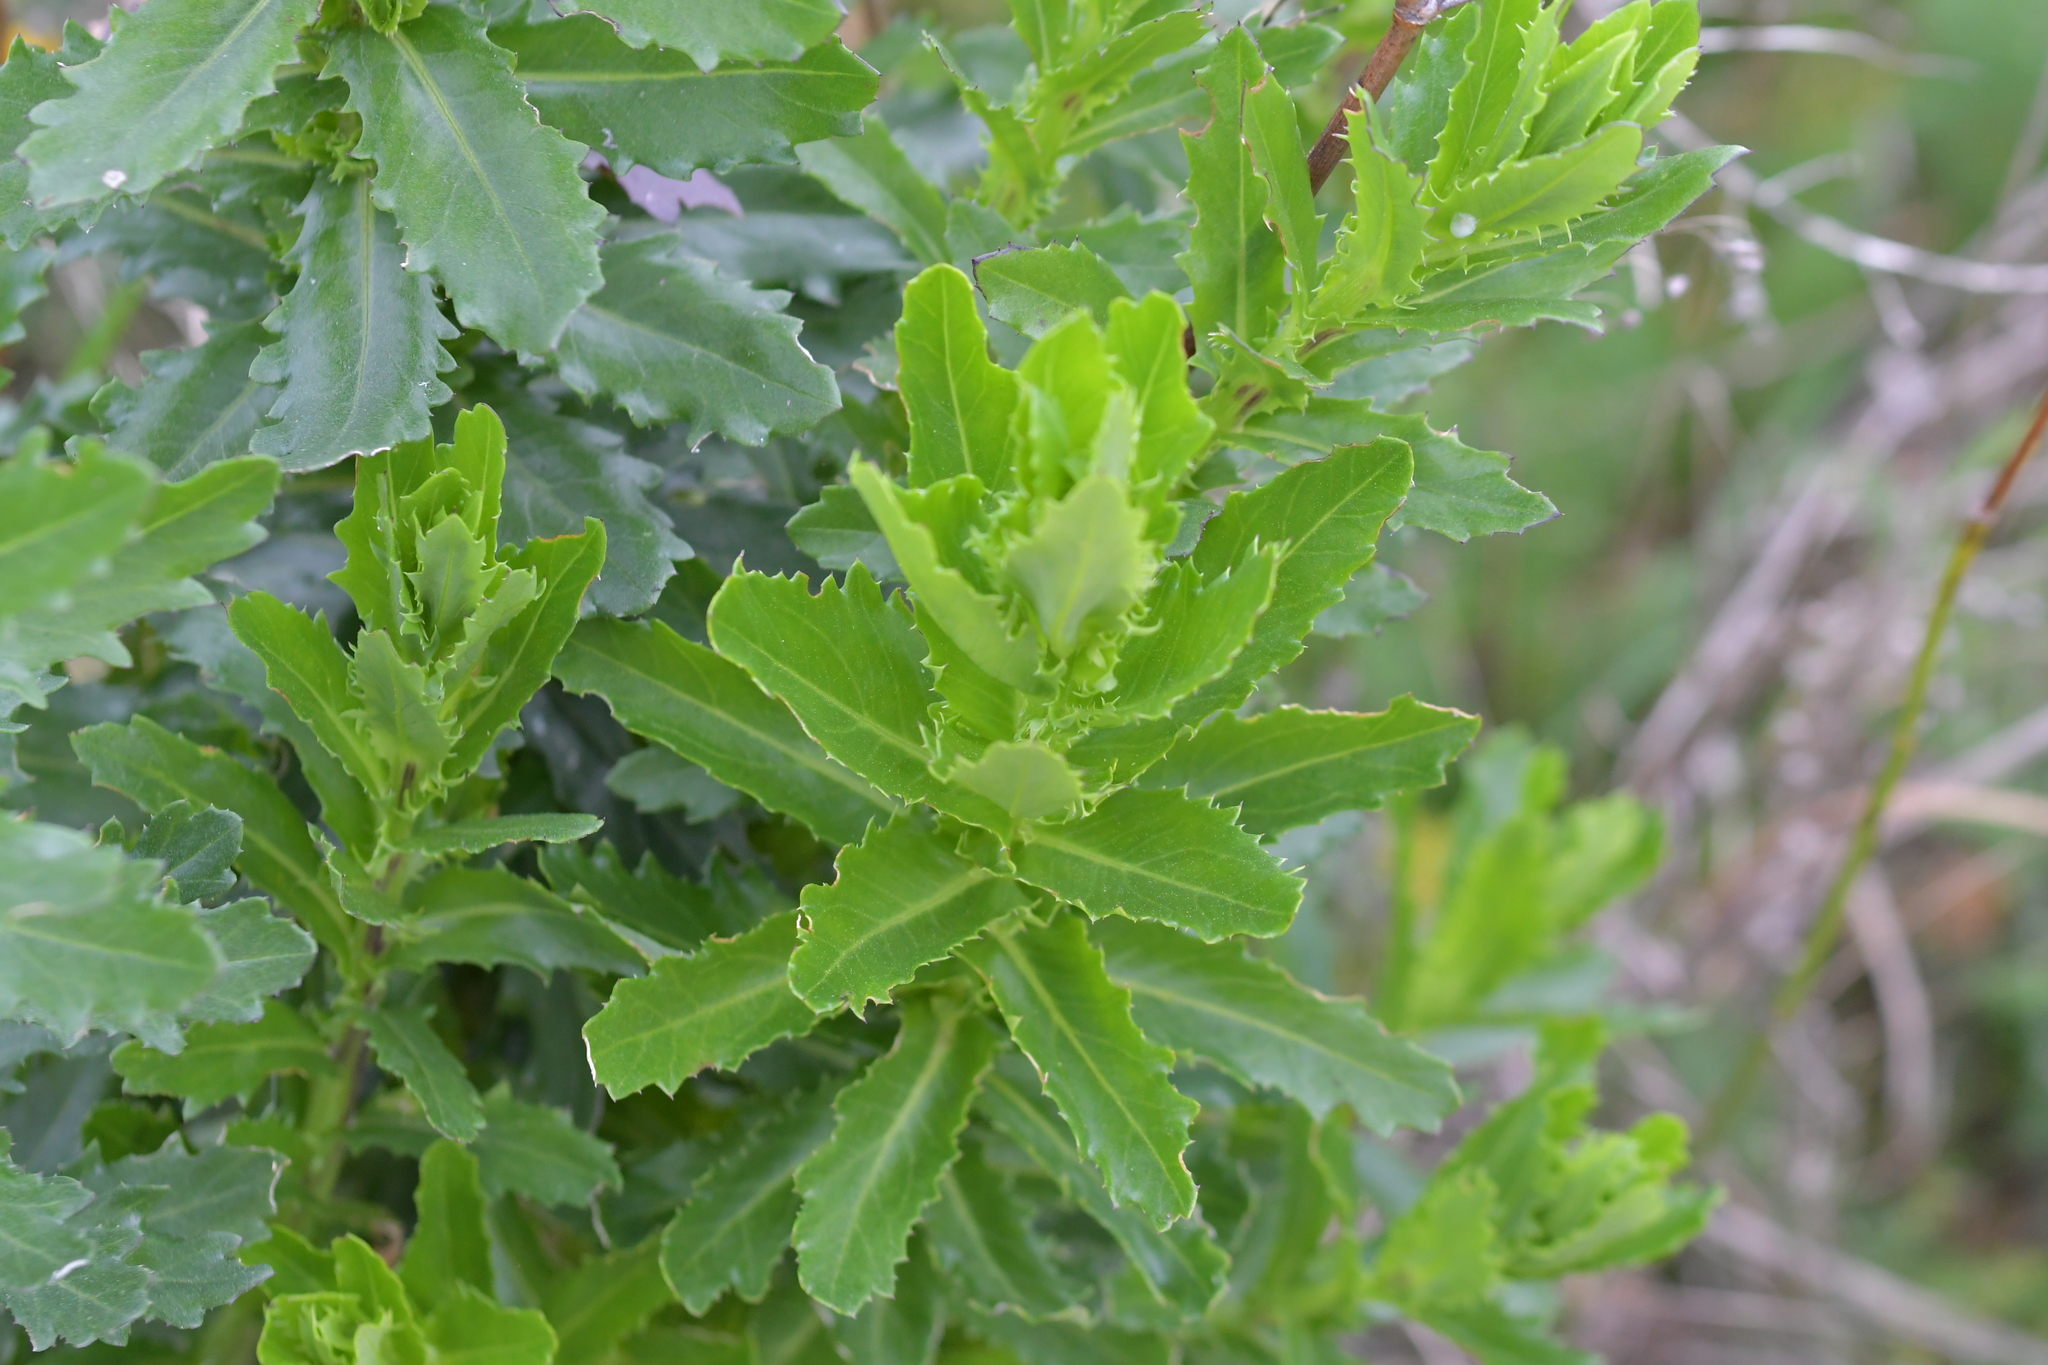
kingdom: Plantae
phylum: Tracheophyta
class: Magnoliopsida
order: Asterales
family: Asteraceae
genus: Senecio
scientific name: Senecio glastifolius
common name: Woad-leaved ragwort
